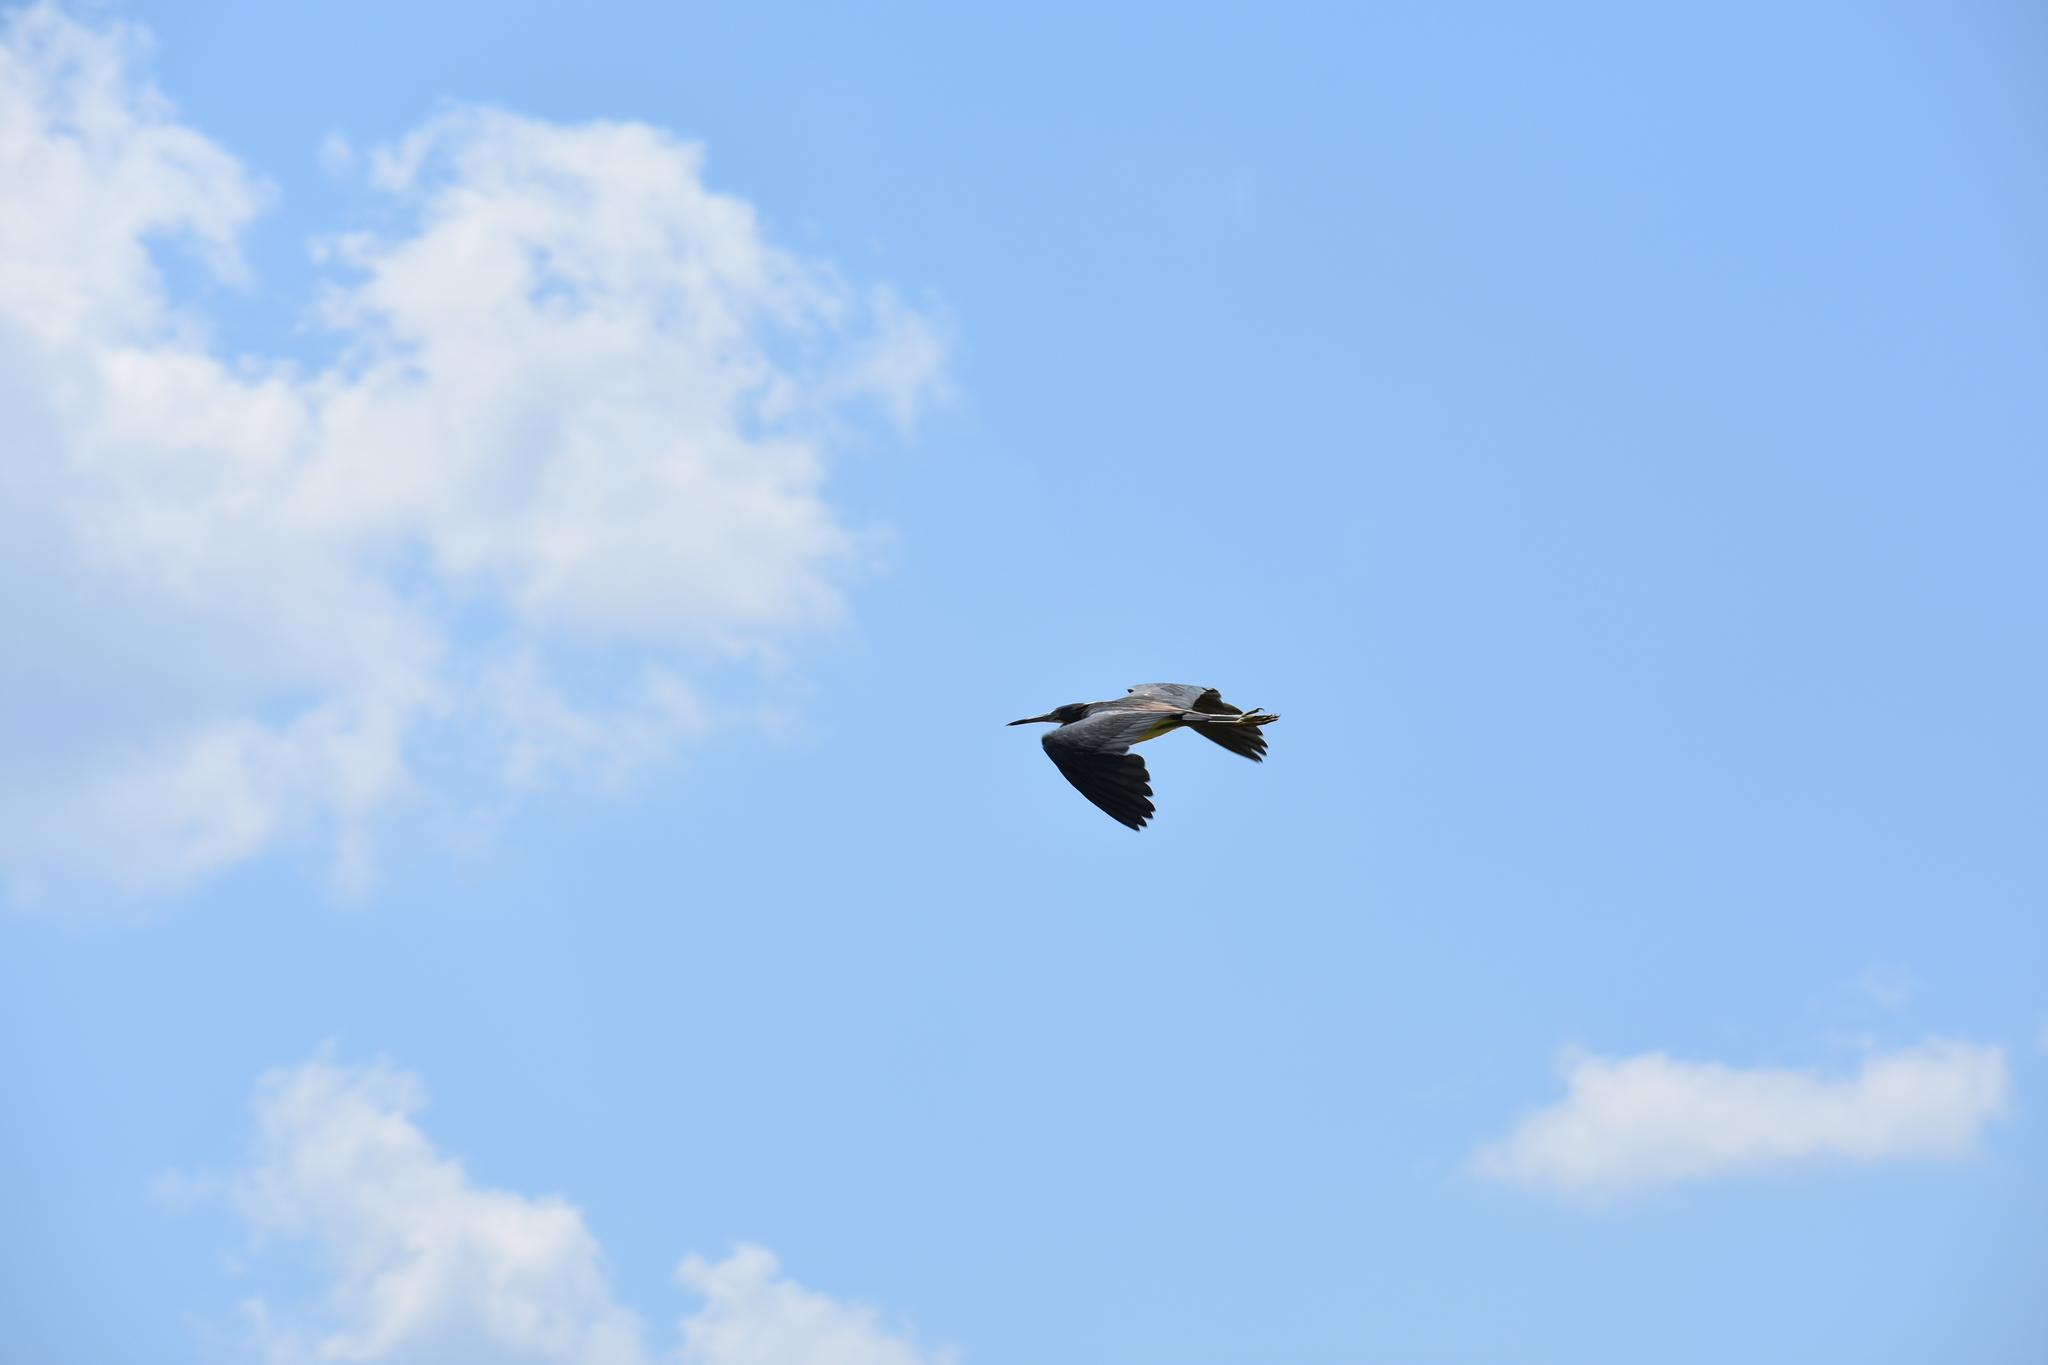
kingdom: Animalia
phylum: Chordata
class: Aves
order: Pelecaniformes
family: Ardeidae
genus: Egretta
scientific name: Egretta tricolor
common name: Tricolored heron
